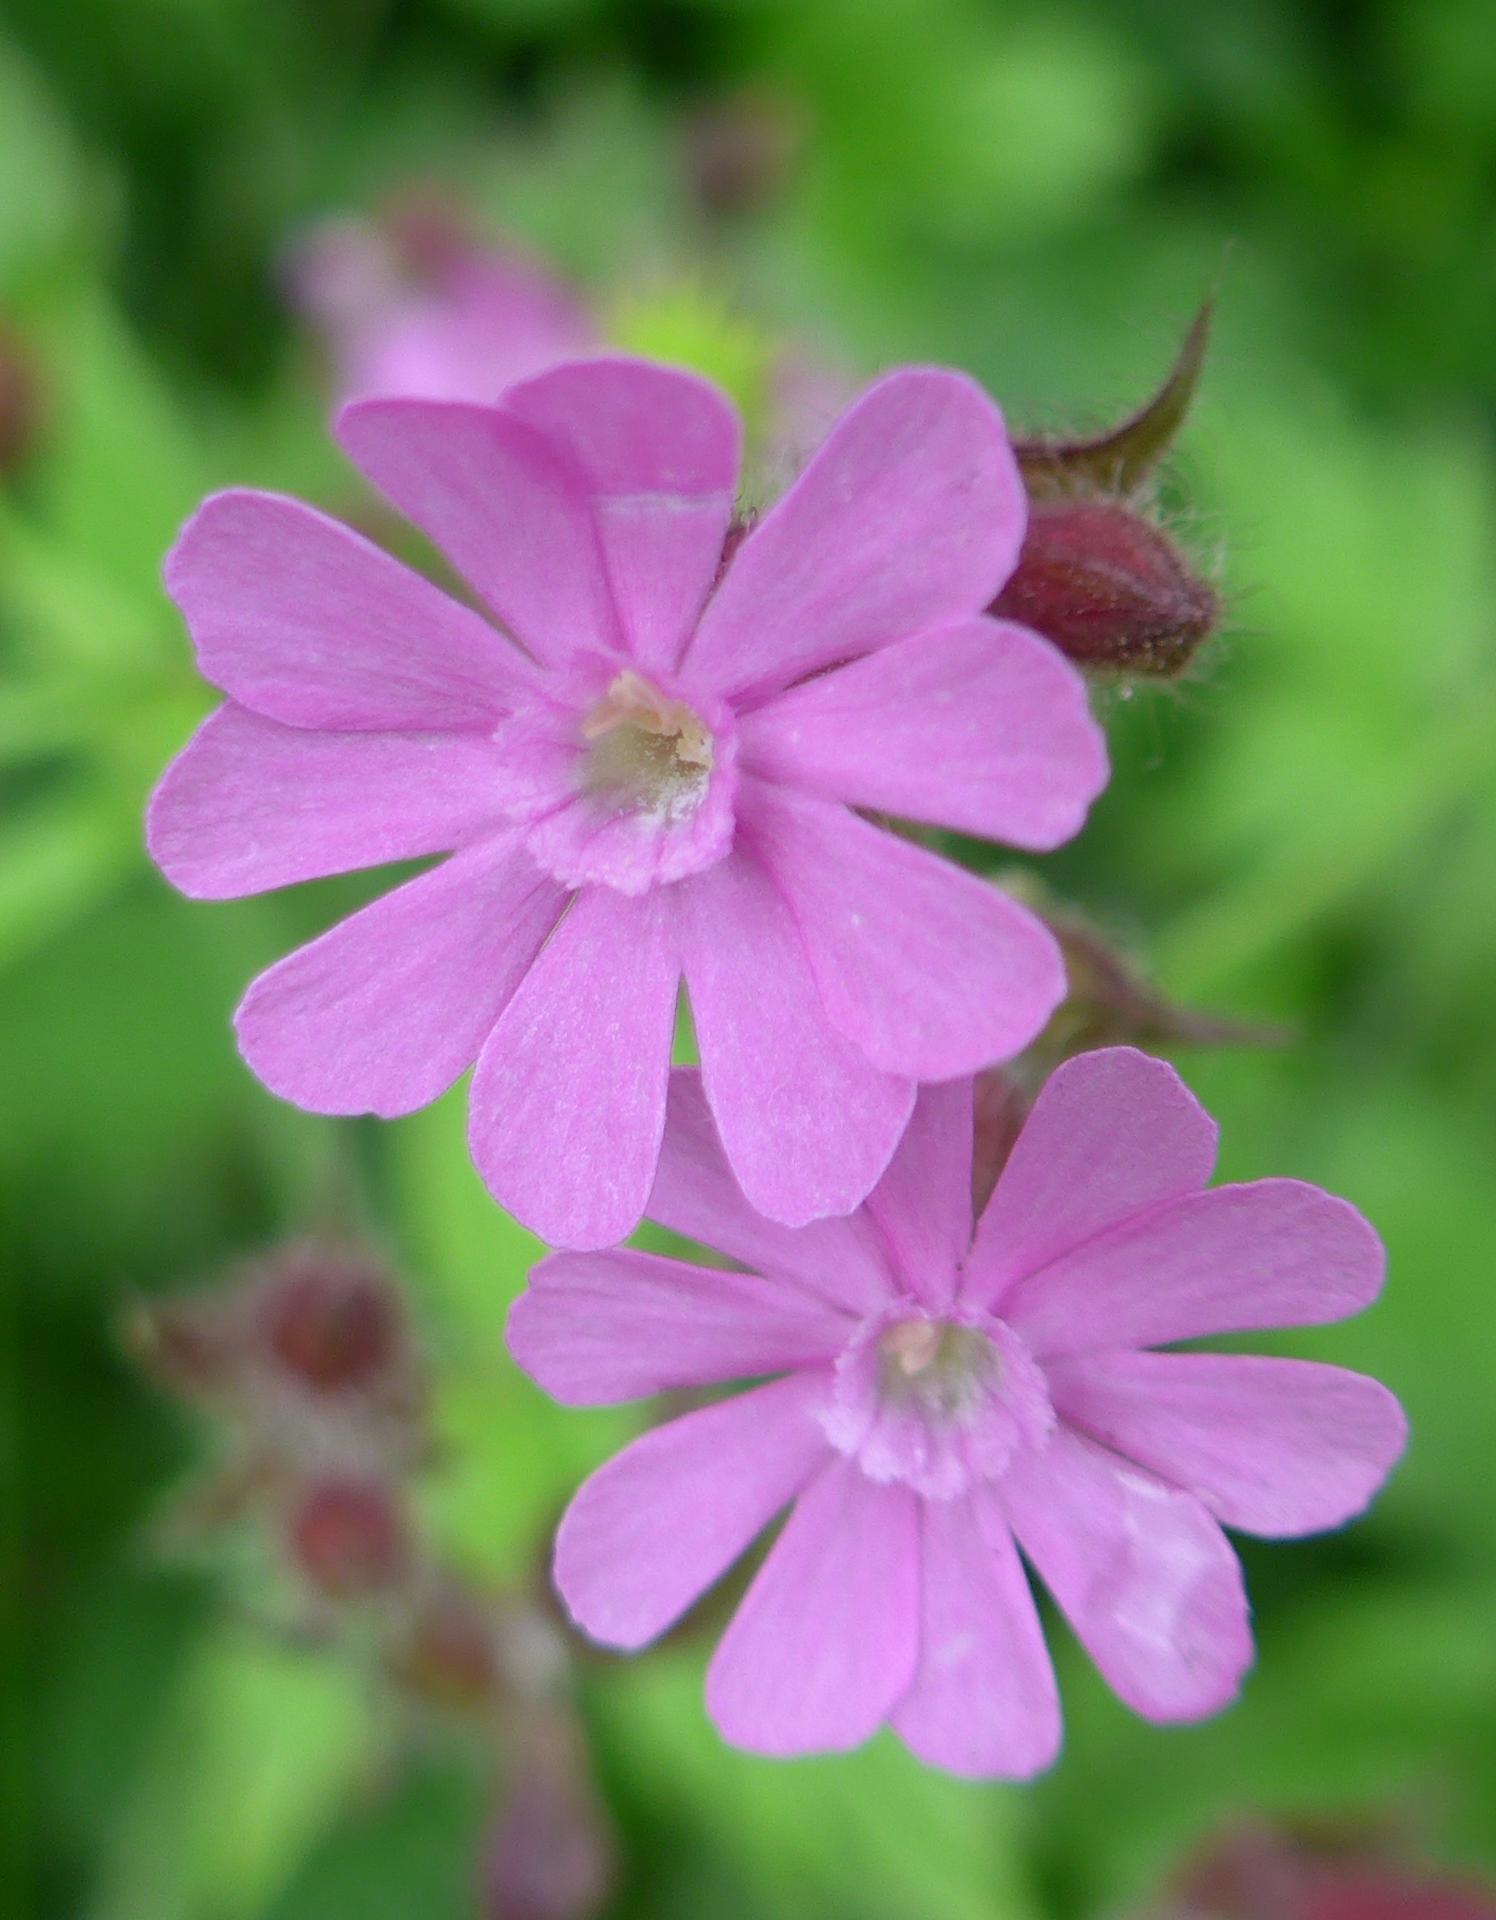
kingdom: Plantae
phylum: Tracheophyta
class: Magnoliopsida
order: Caryophyllales
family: Caryophyllaceae
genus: Silene
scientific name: Silene dioica
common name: Red campion
